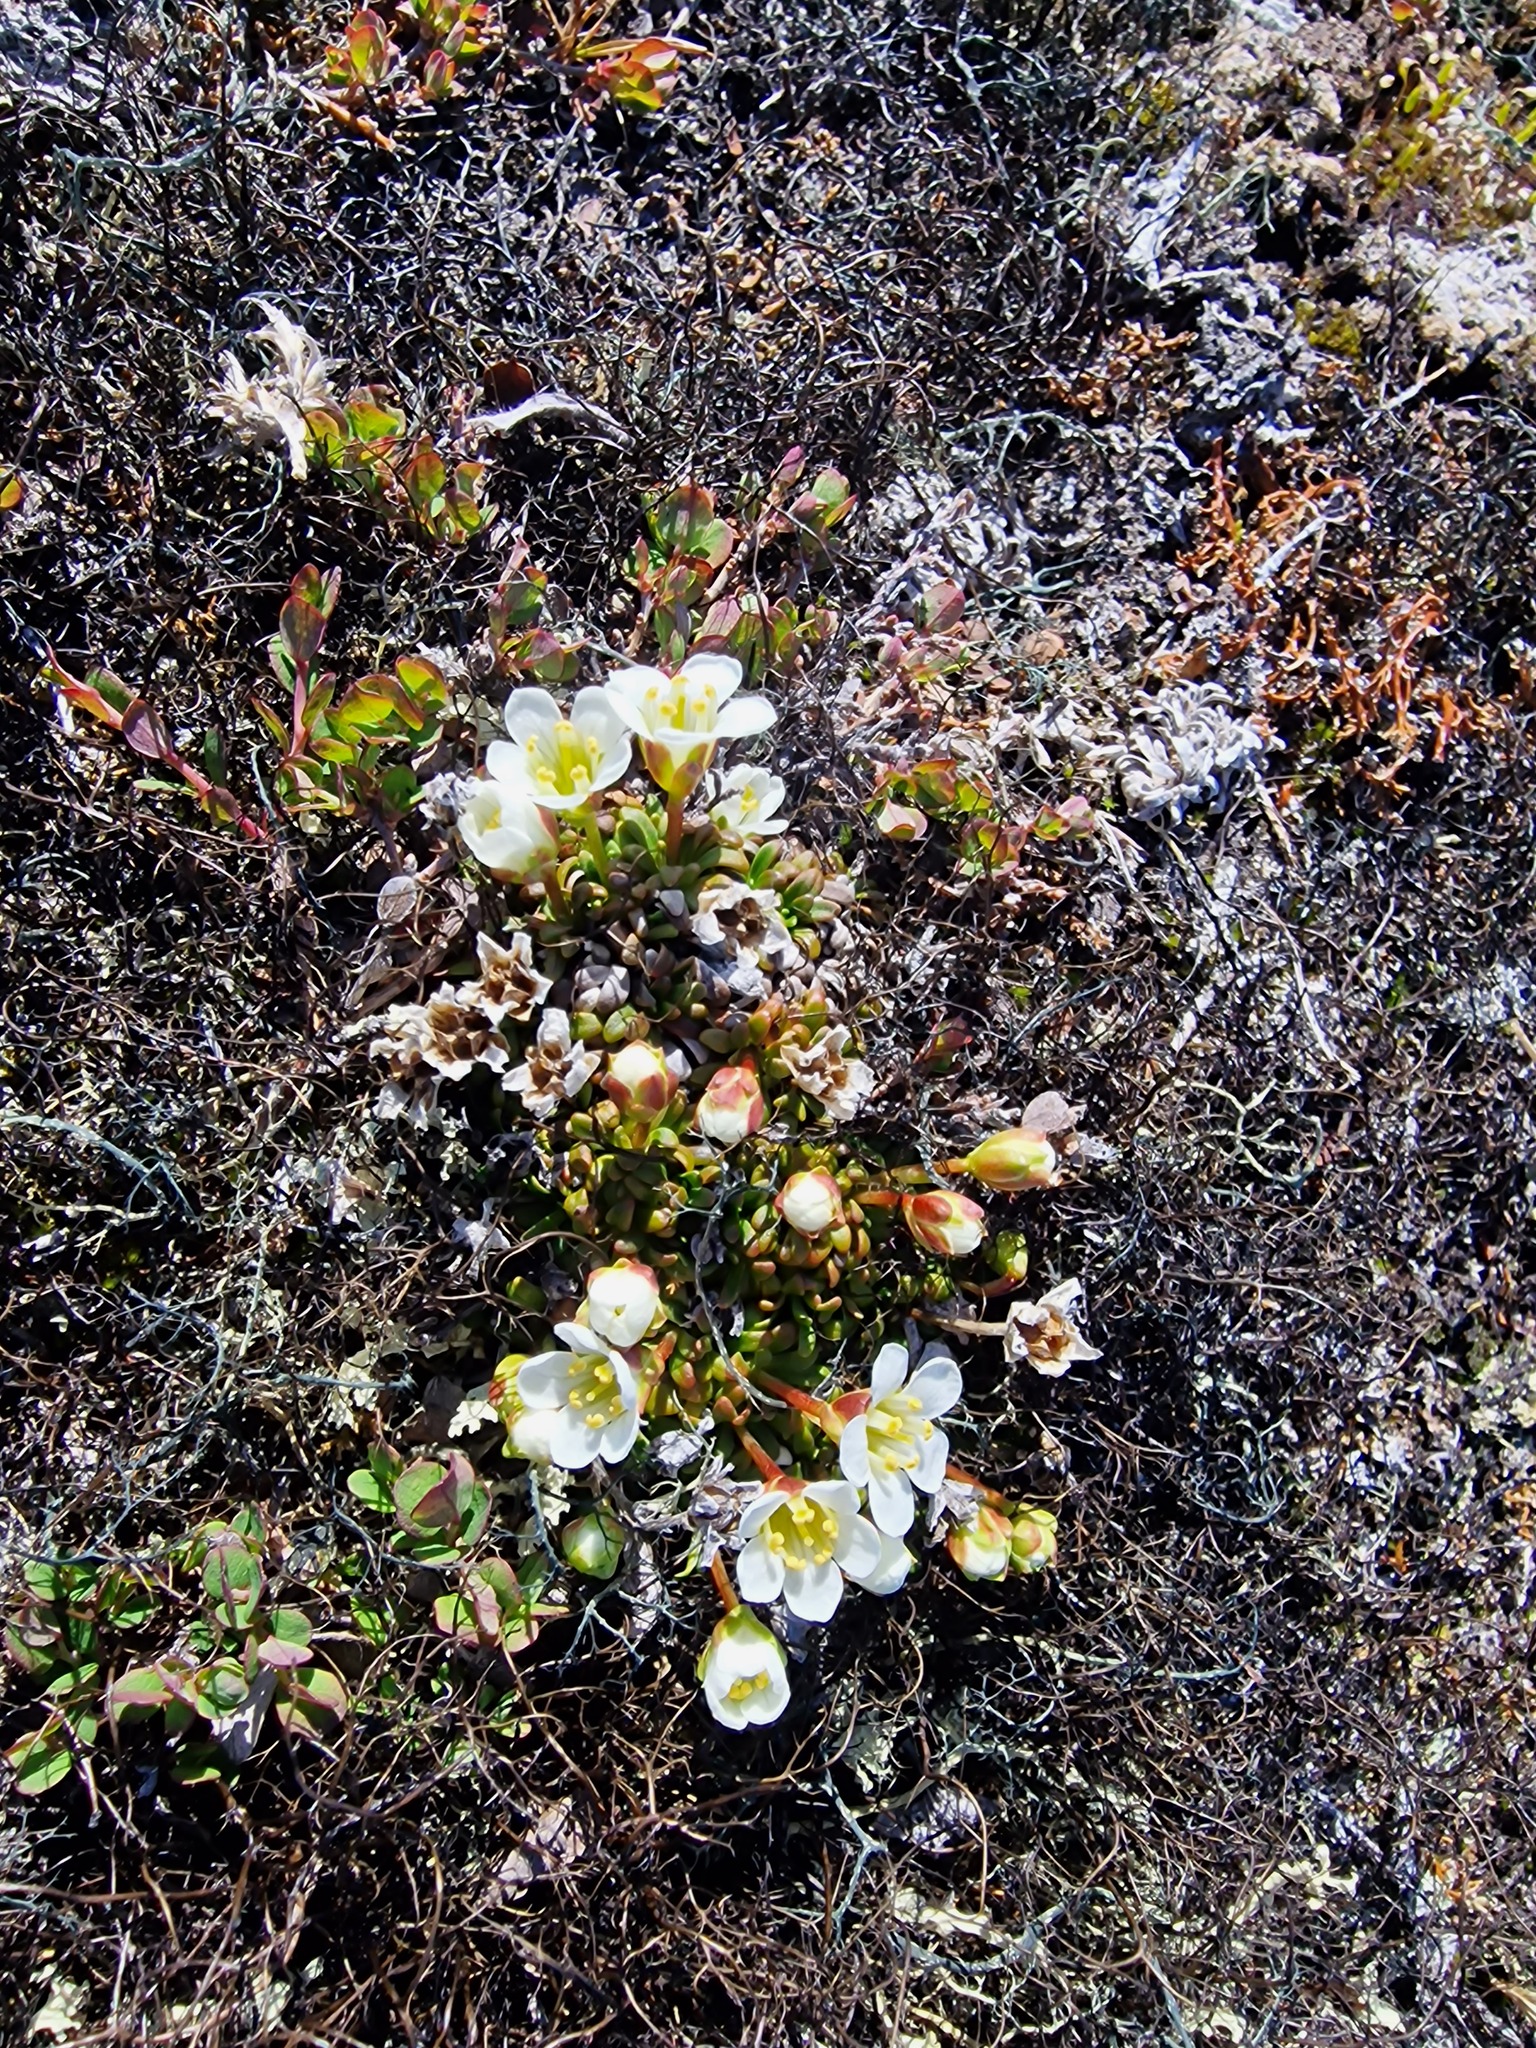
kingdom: Plantae
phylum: Tracheophyta
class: Magnoliopsida
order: Ericales
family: Diapensiaceae
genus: Diapensia
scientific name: Diapensia lapponica
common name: Diapensia
